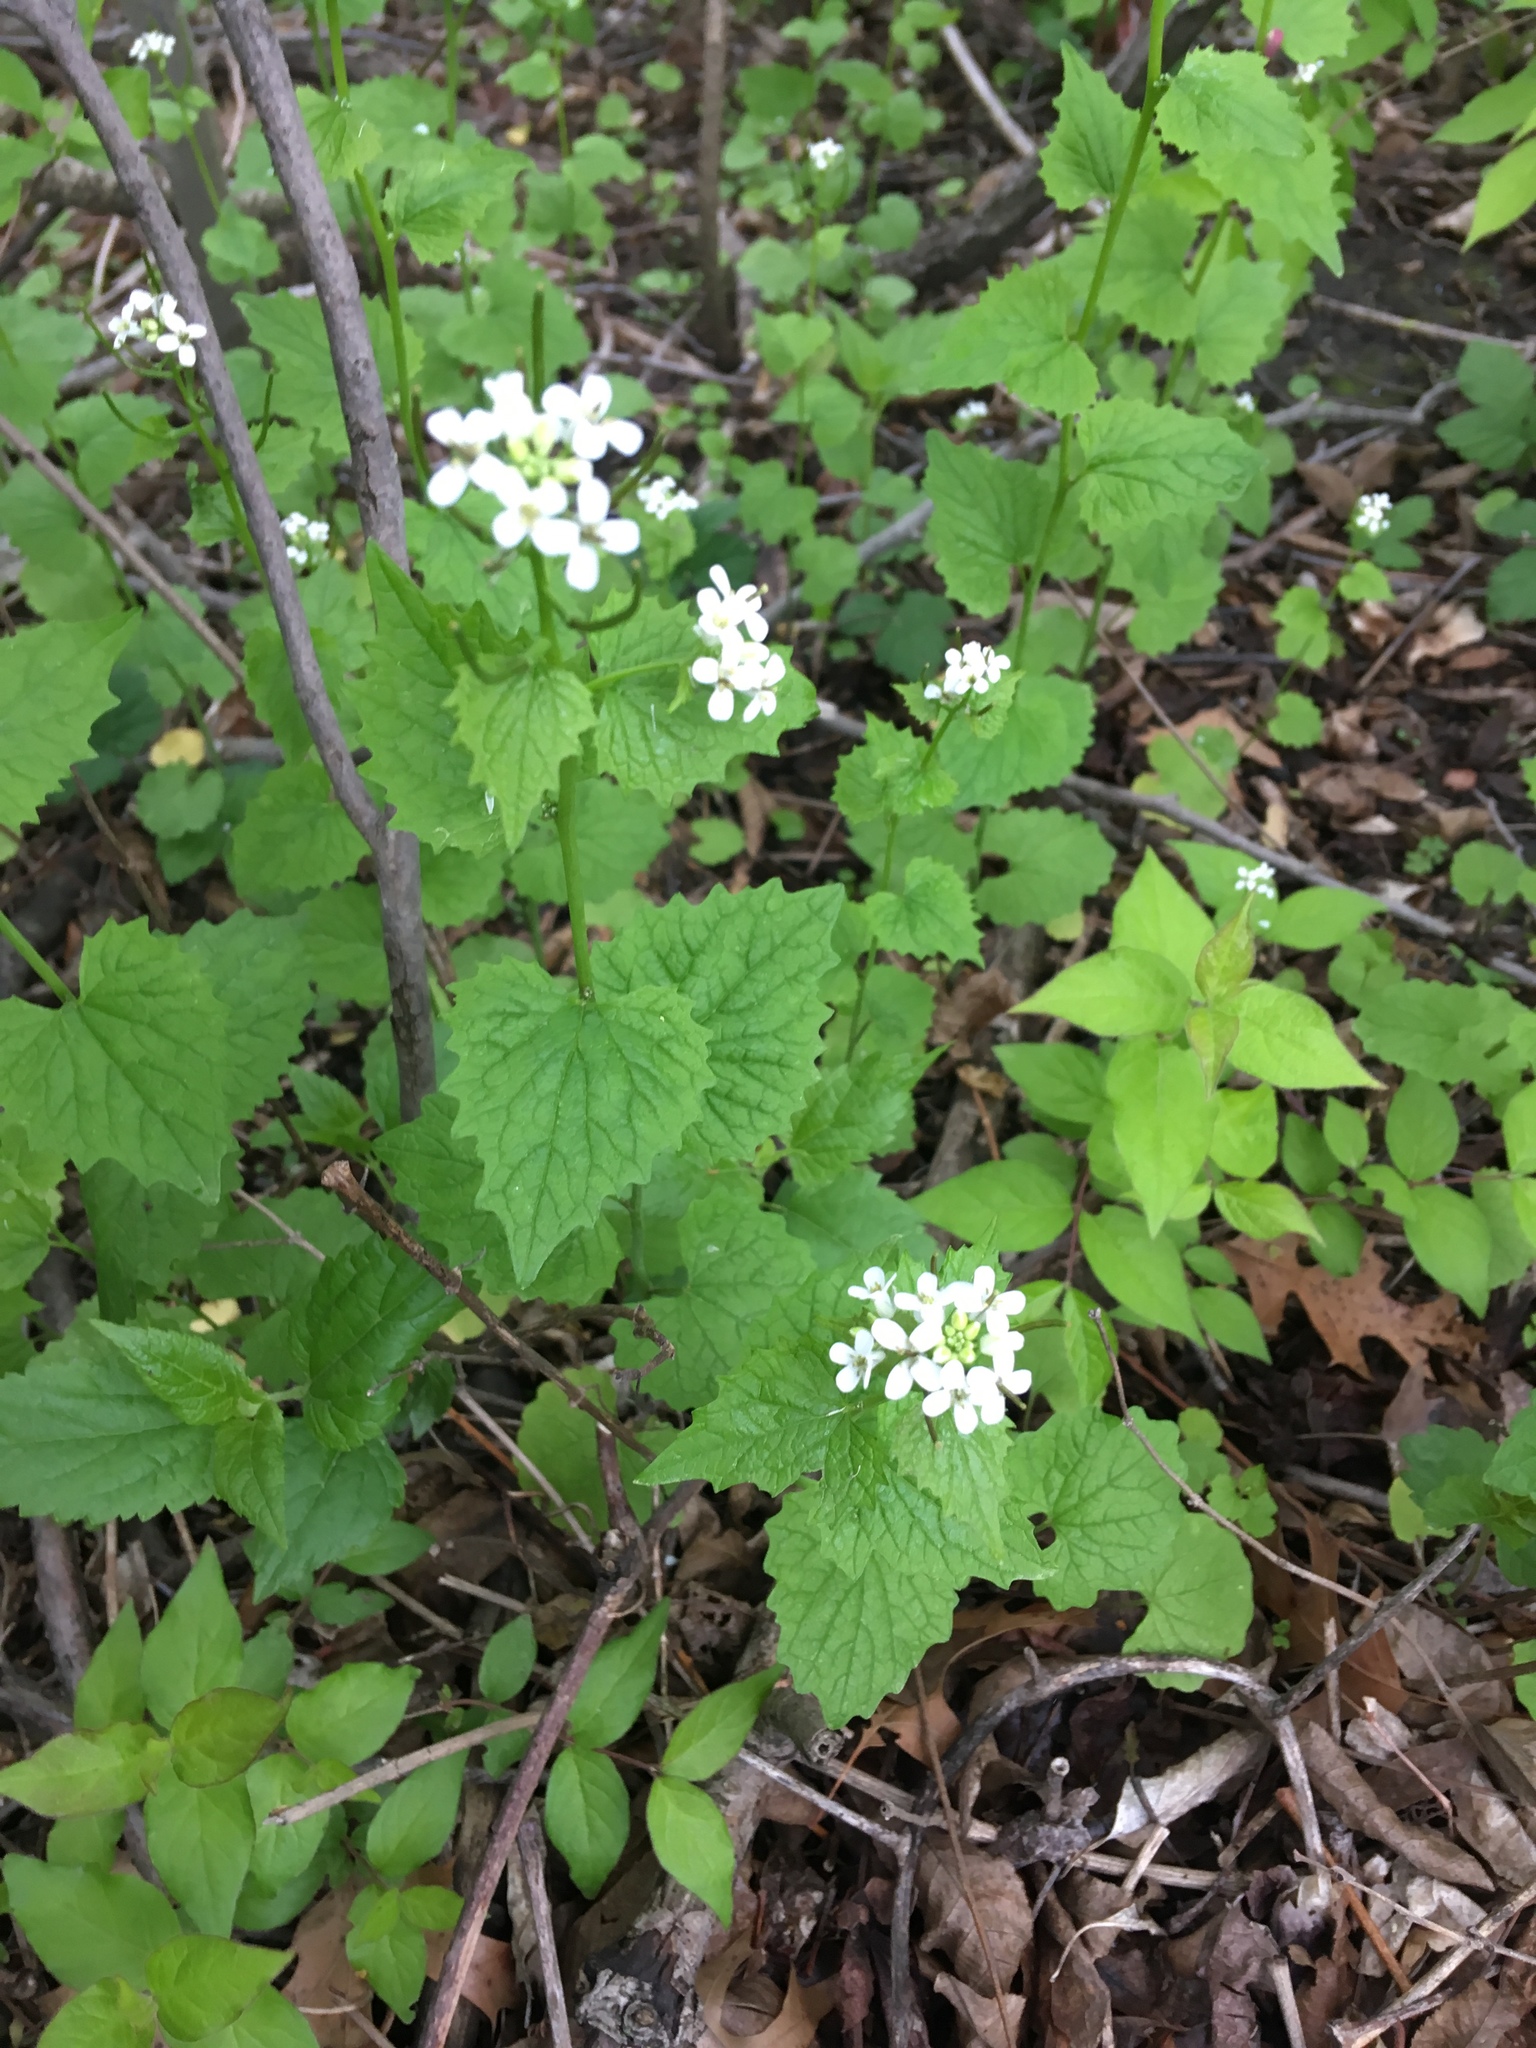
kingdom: Plantae
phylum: Tracheophyta
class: Magnoliopsida
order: Brassicales
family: Brassicaceae
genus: Alliaria
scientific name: Alliaria petiolata
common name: Garlic mustard
